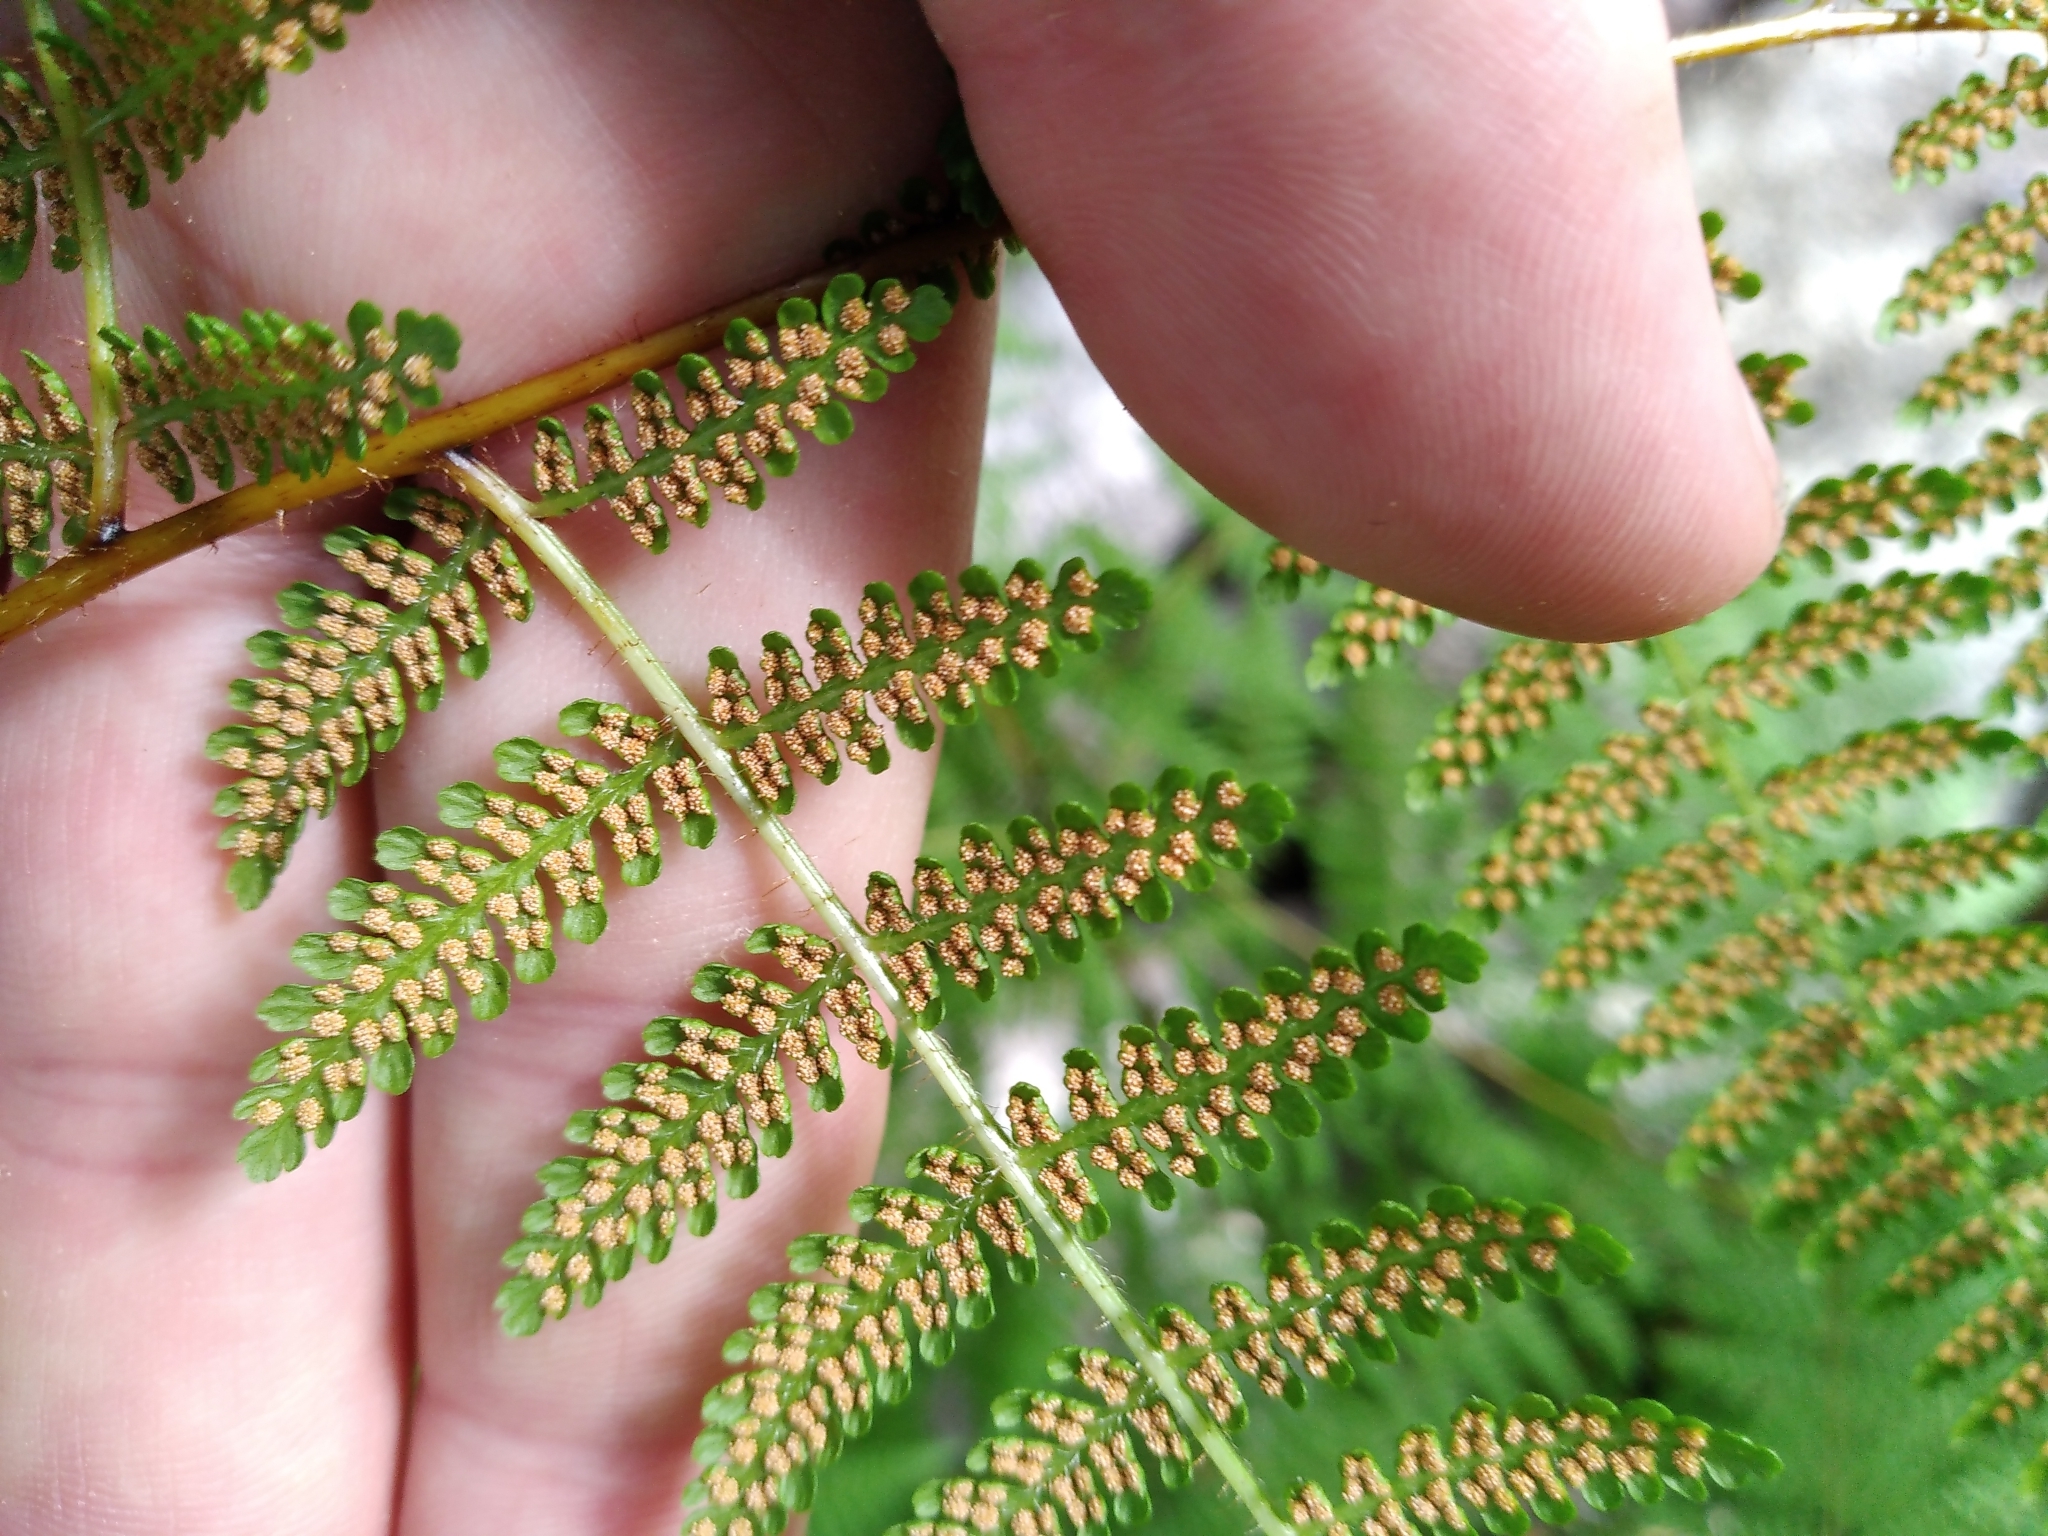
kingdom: Plantae
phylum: Tracheophyta
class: Polypodiopsida
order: Polypodiales
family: Dennstaedtiaceae
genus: Hypolepis
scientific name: Hypolepis ambigua
